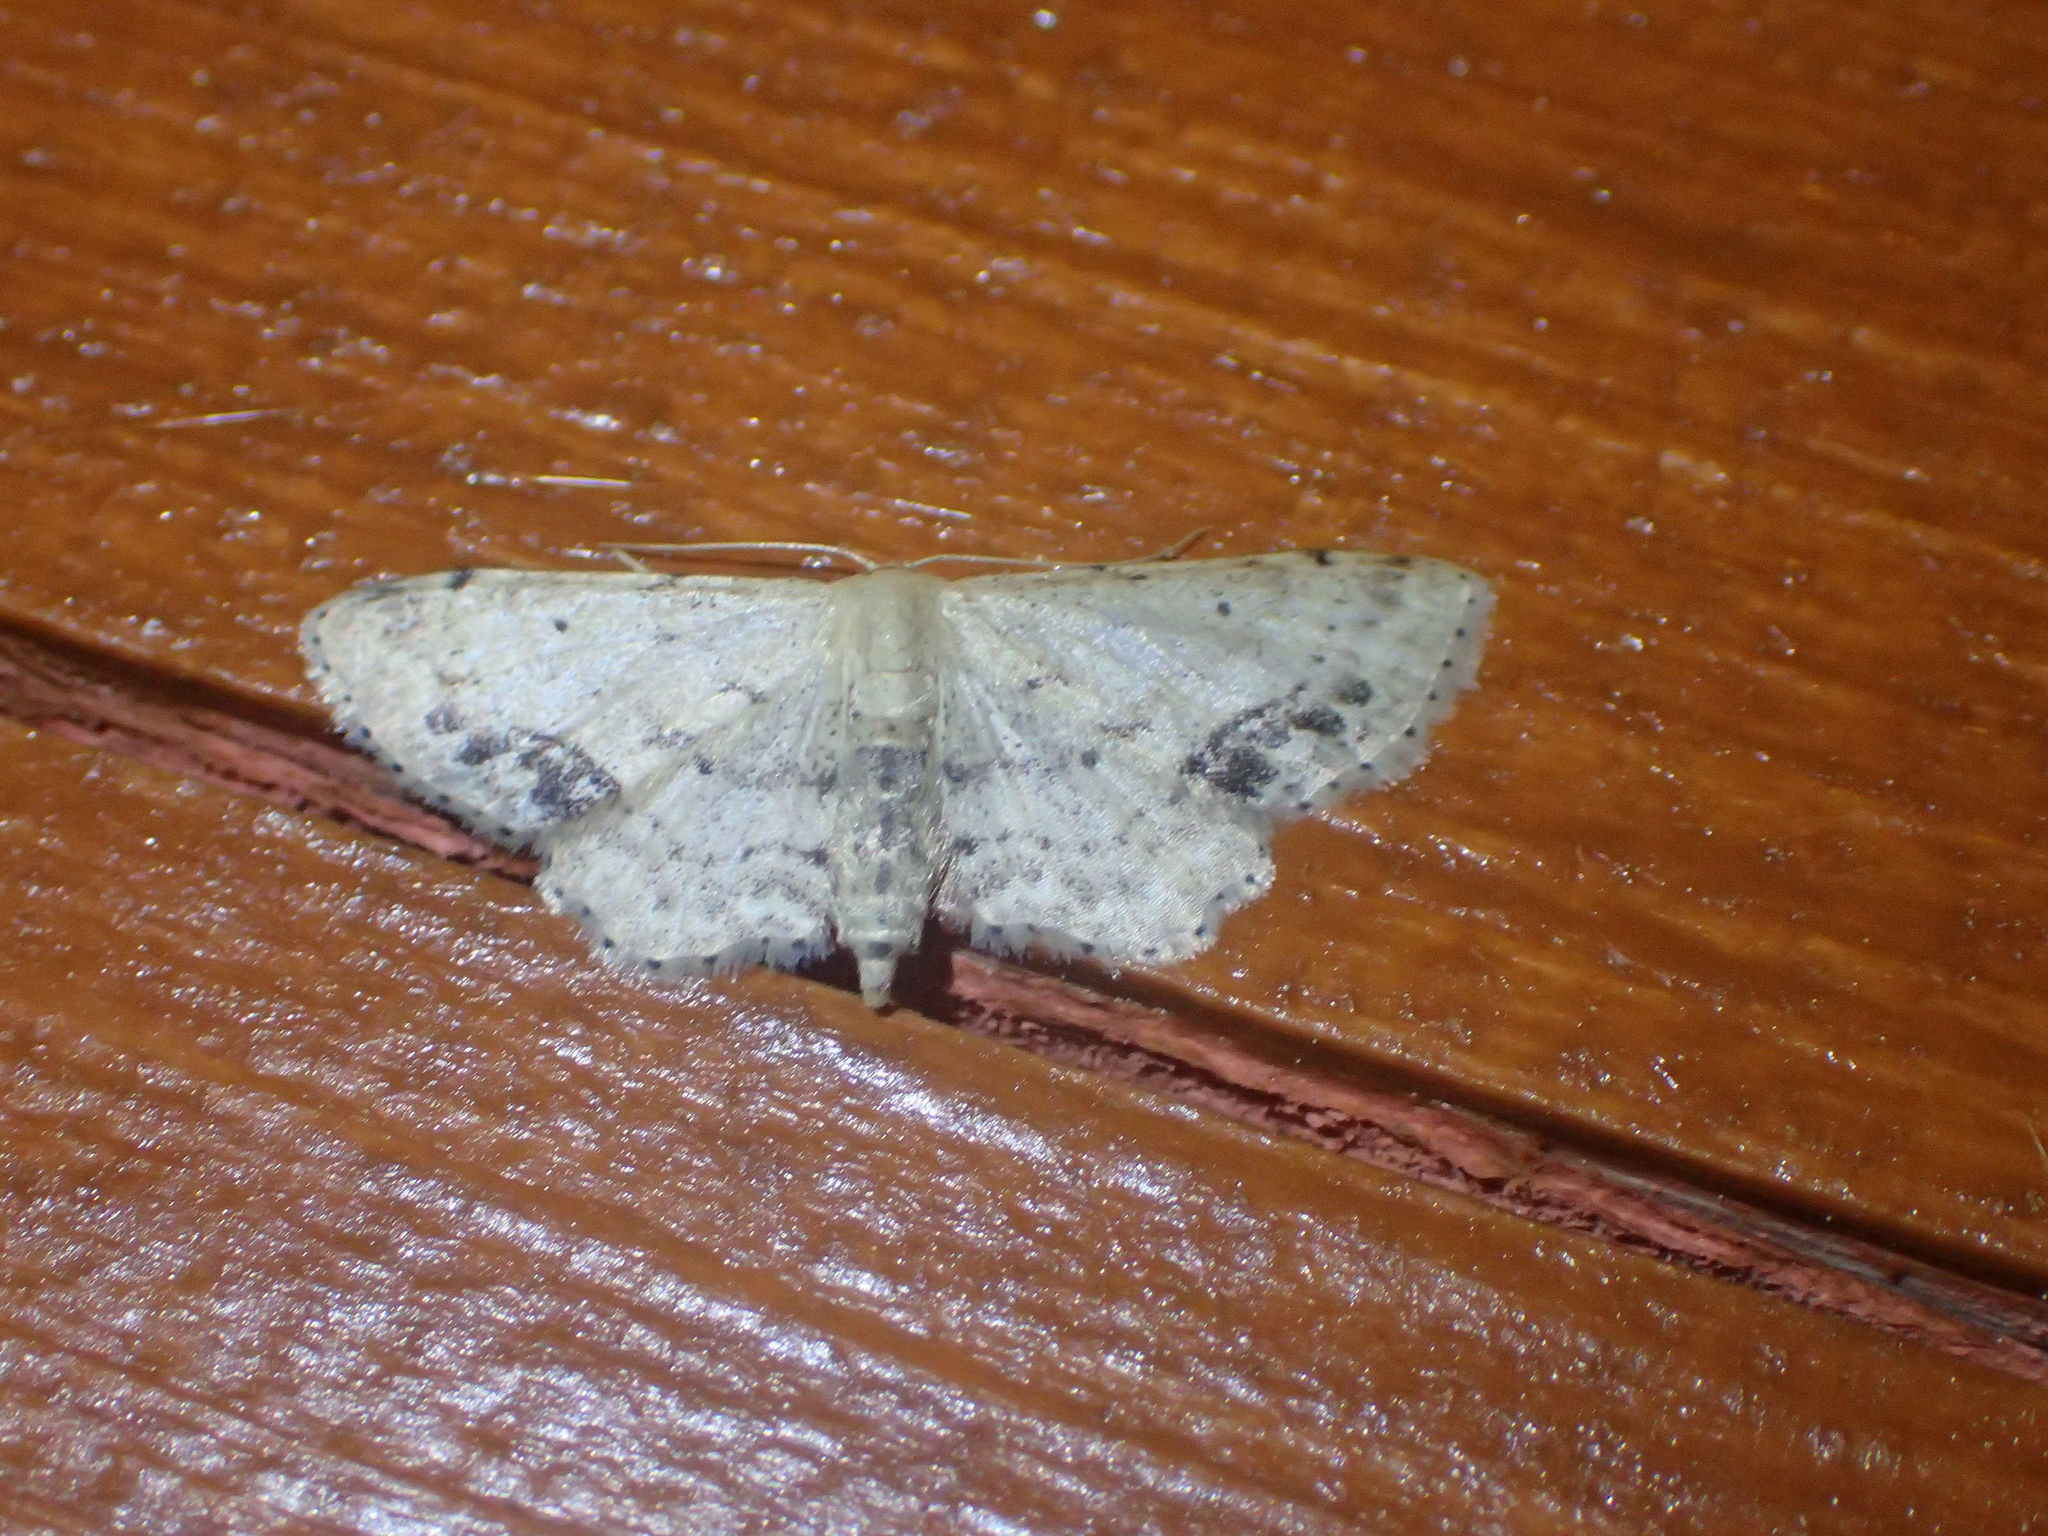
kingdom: Animalia
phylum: Arthropoda
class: Insecta
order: Lepidoptera
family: Geometridae
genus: Idaea
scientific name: Idaea dimidiata
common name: Single-dotted wave
